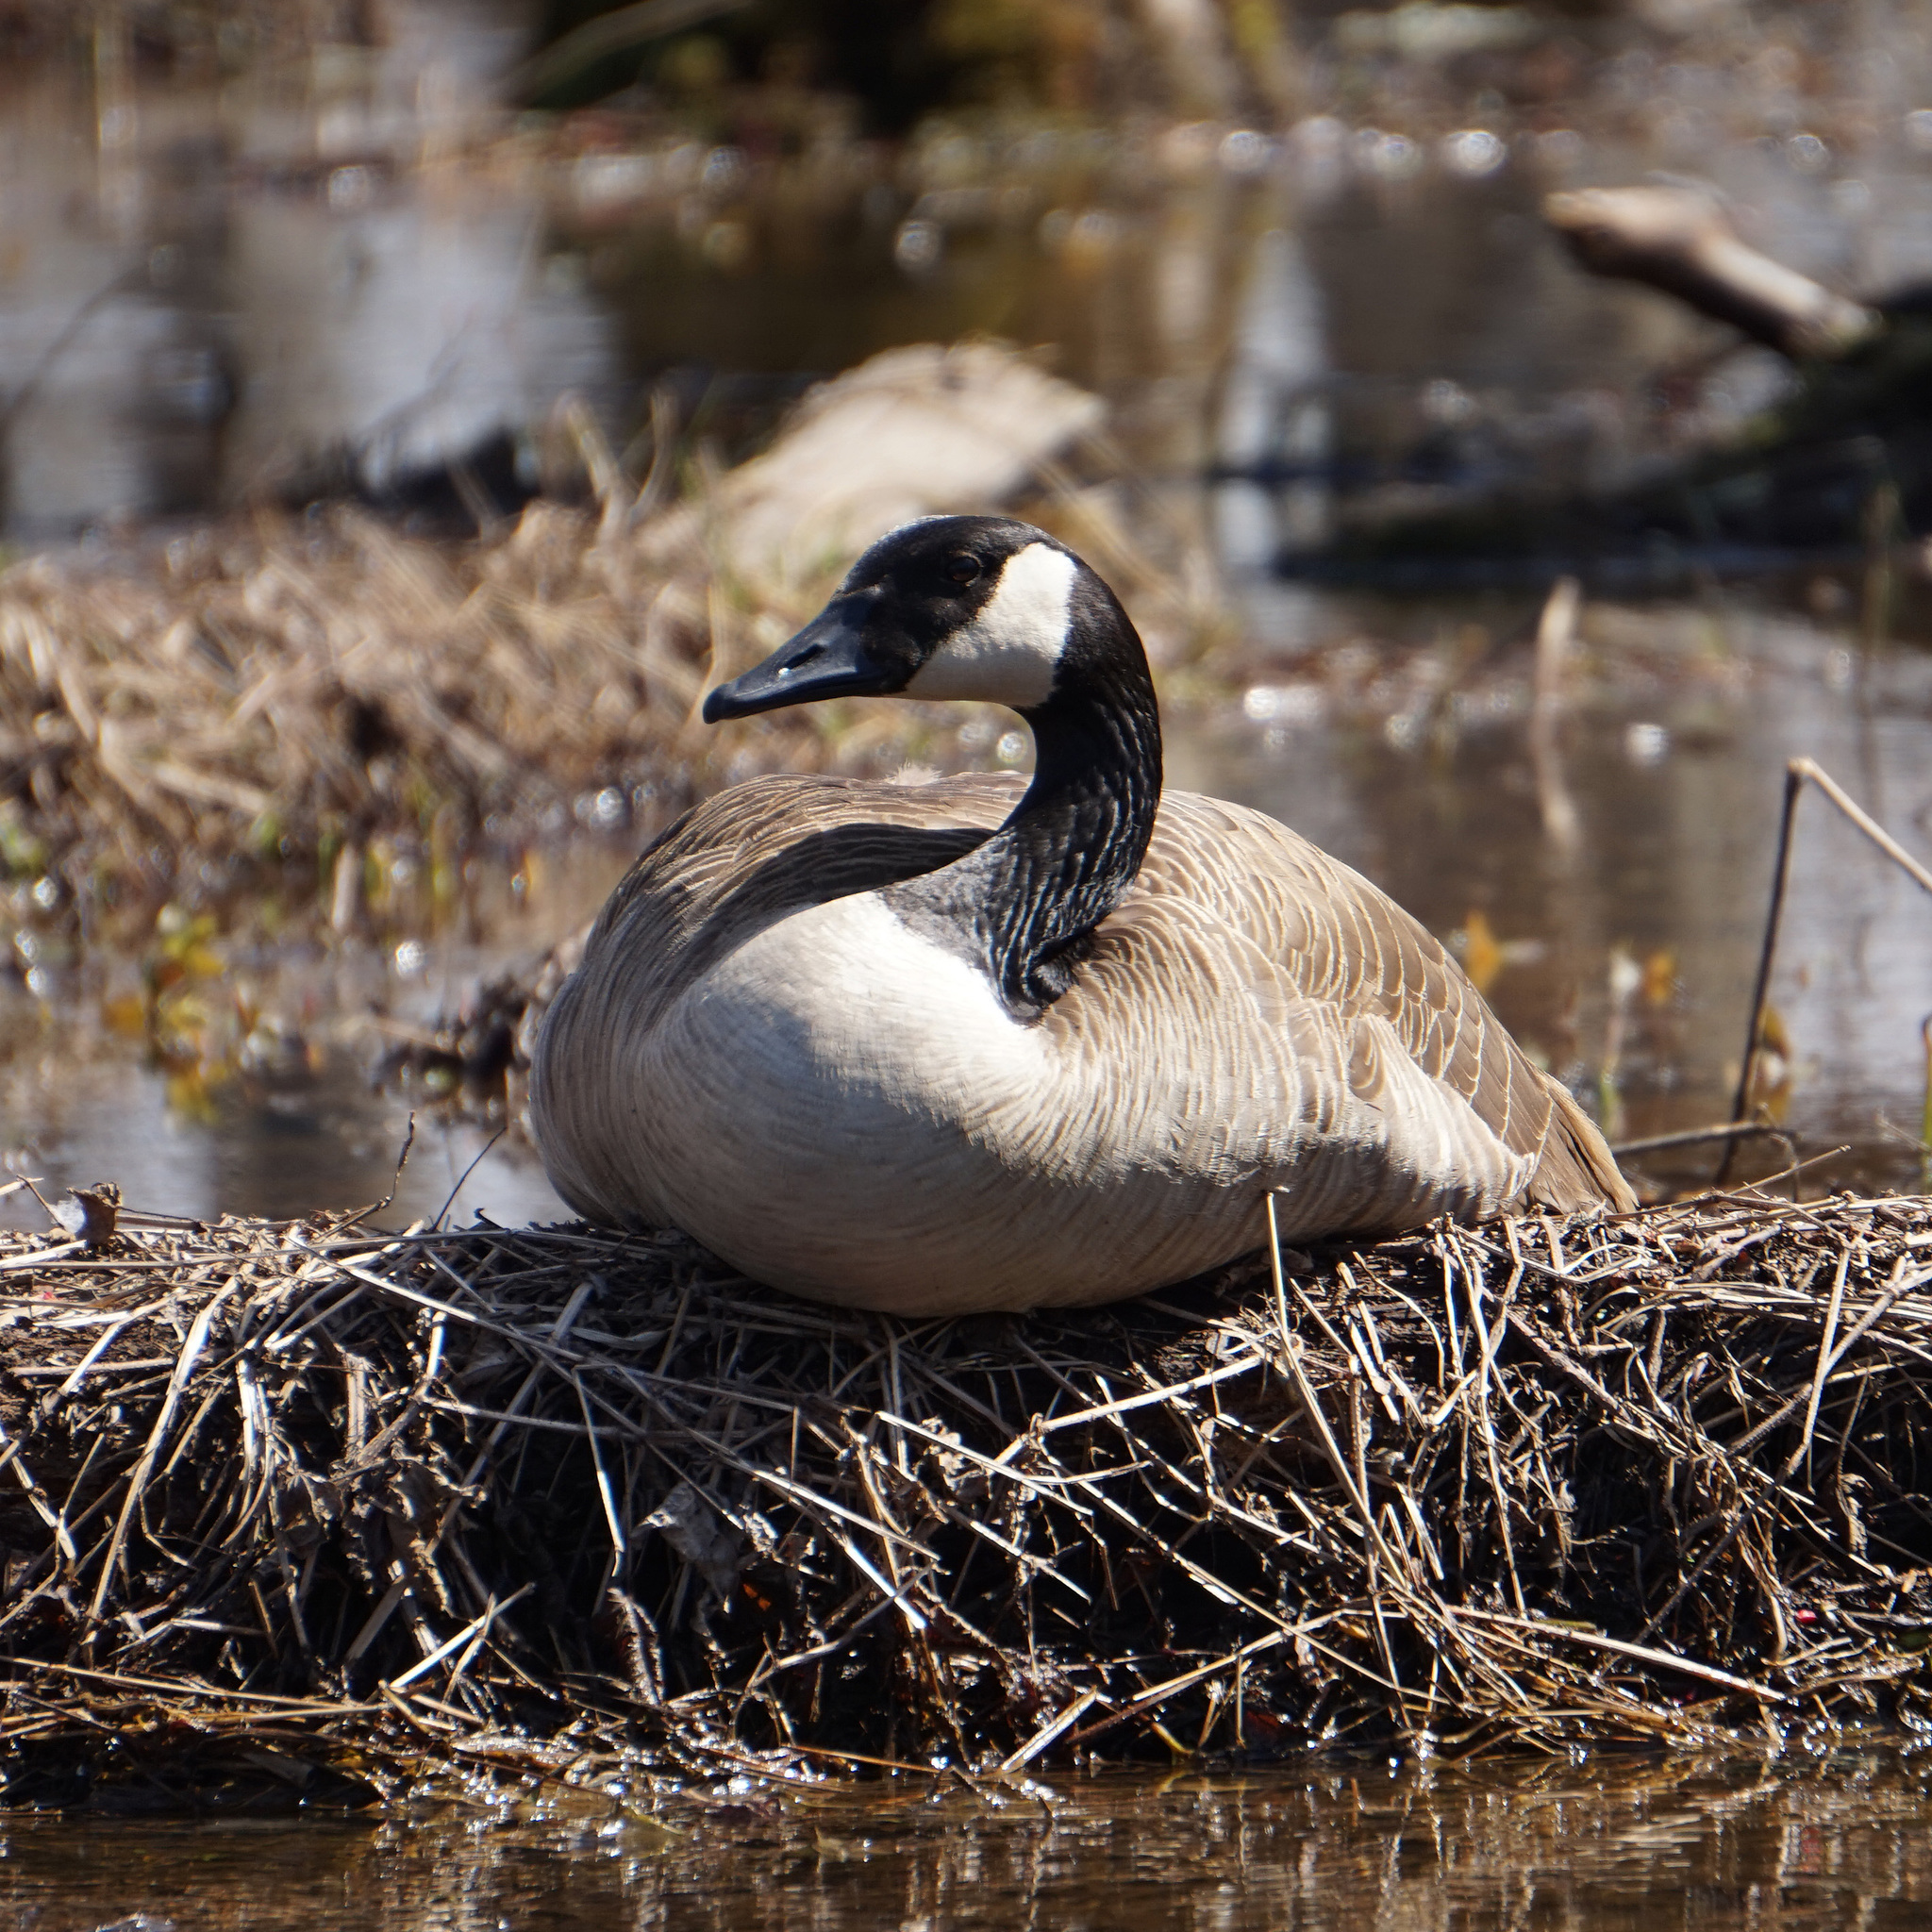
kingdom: Animalia
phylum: Chordata
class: Aves
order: Anseriformes
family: Anatidae
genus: Branta
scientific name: Branta canadensis
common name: Canada goose
